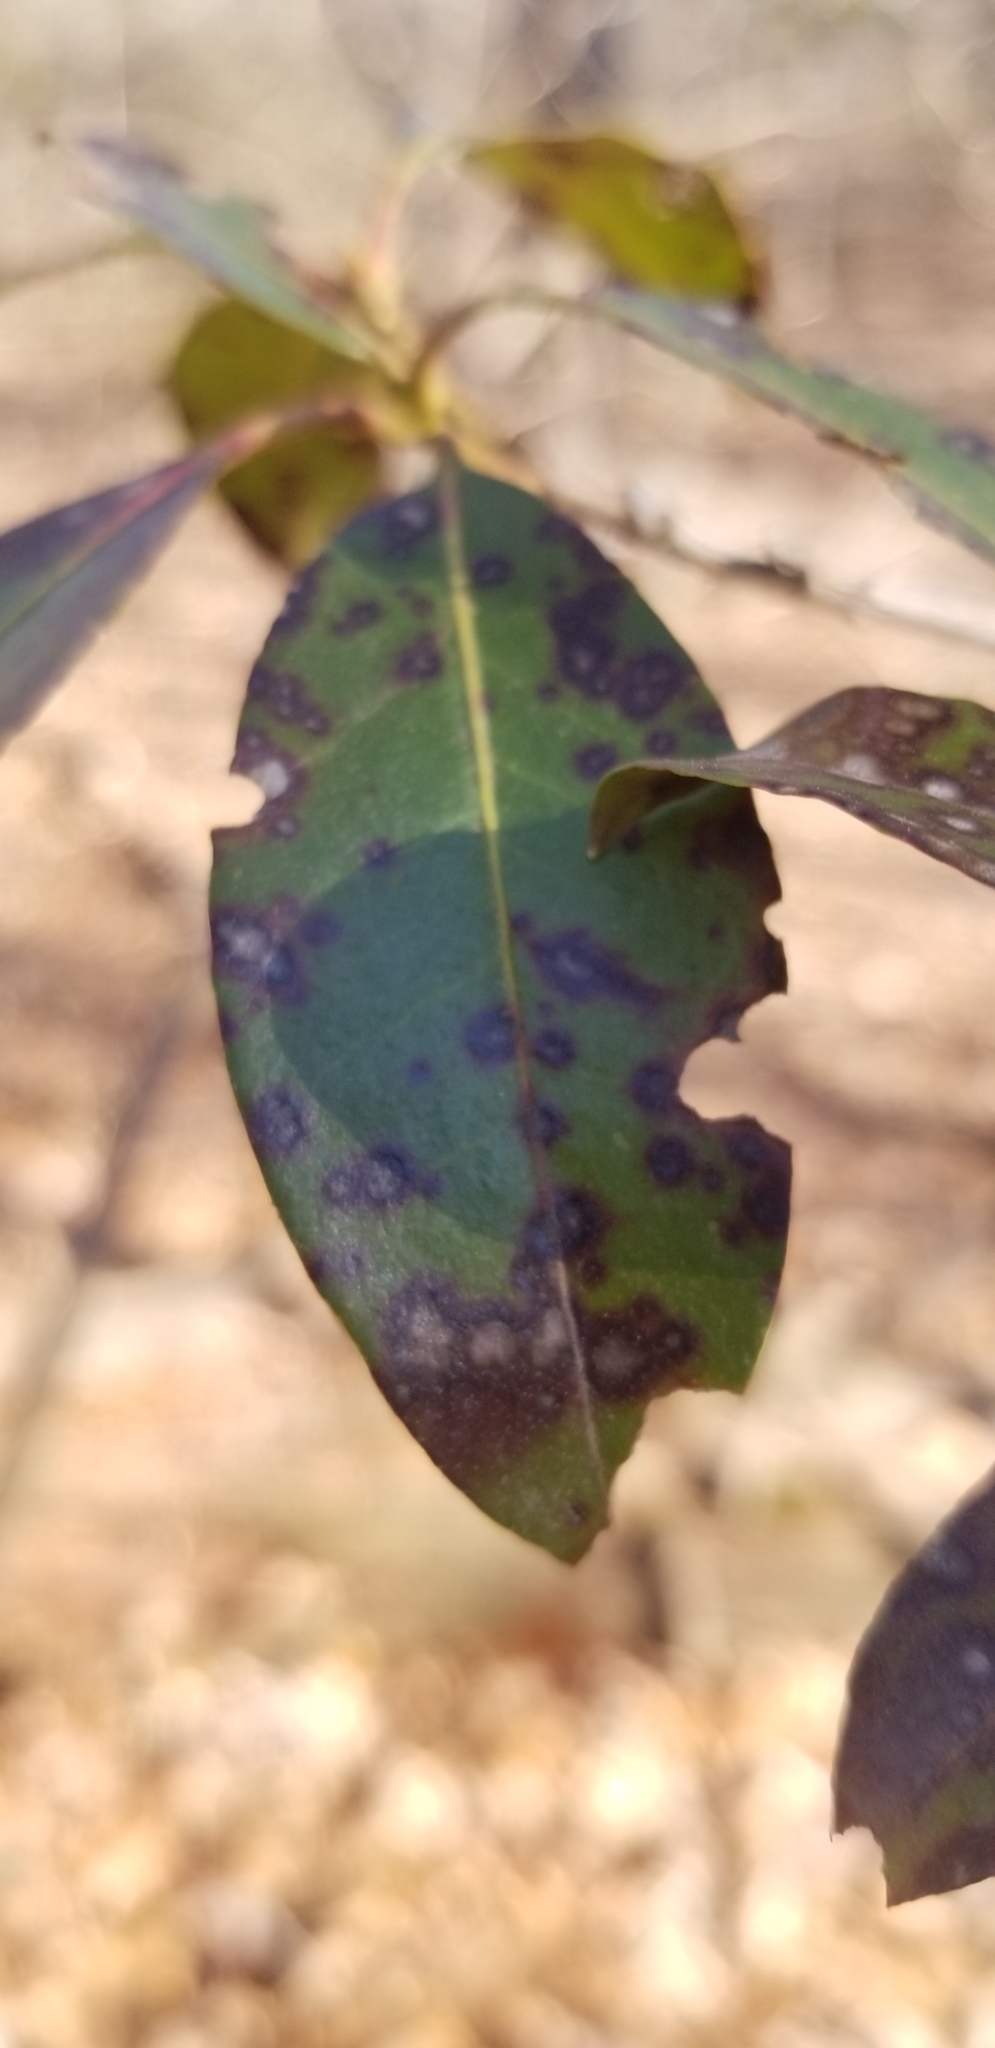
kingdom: Fungi
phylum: Ascomycota
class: Dothideomycetes
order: Mycosphaerellales
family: Mycosphaerellaceae
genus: Mycosphaerella
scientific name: Mycosphaerella colorata
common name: Mountain laurel leaf spot
